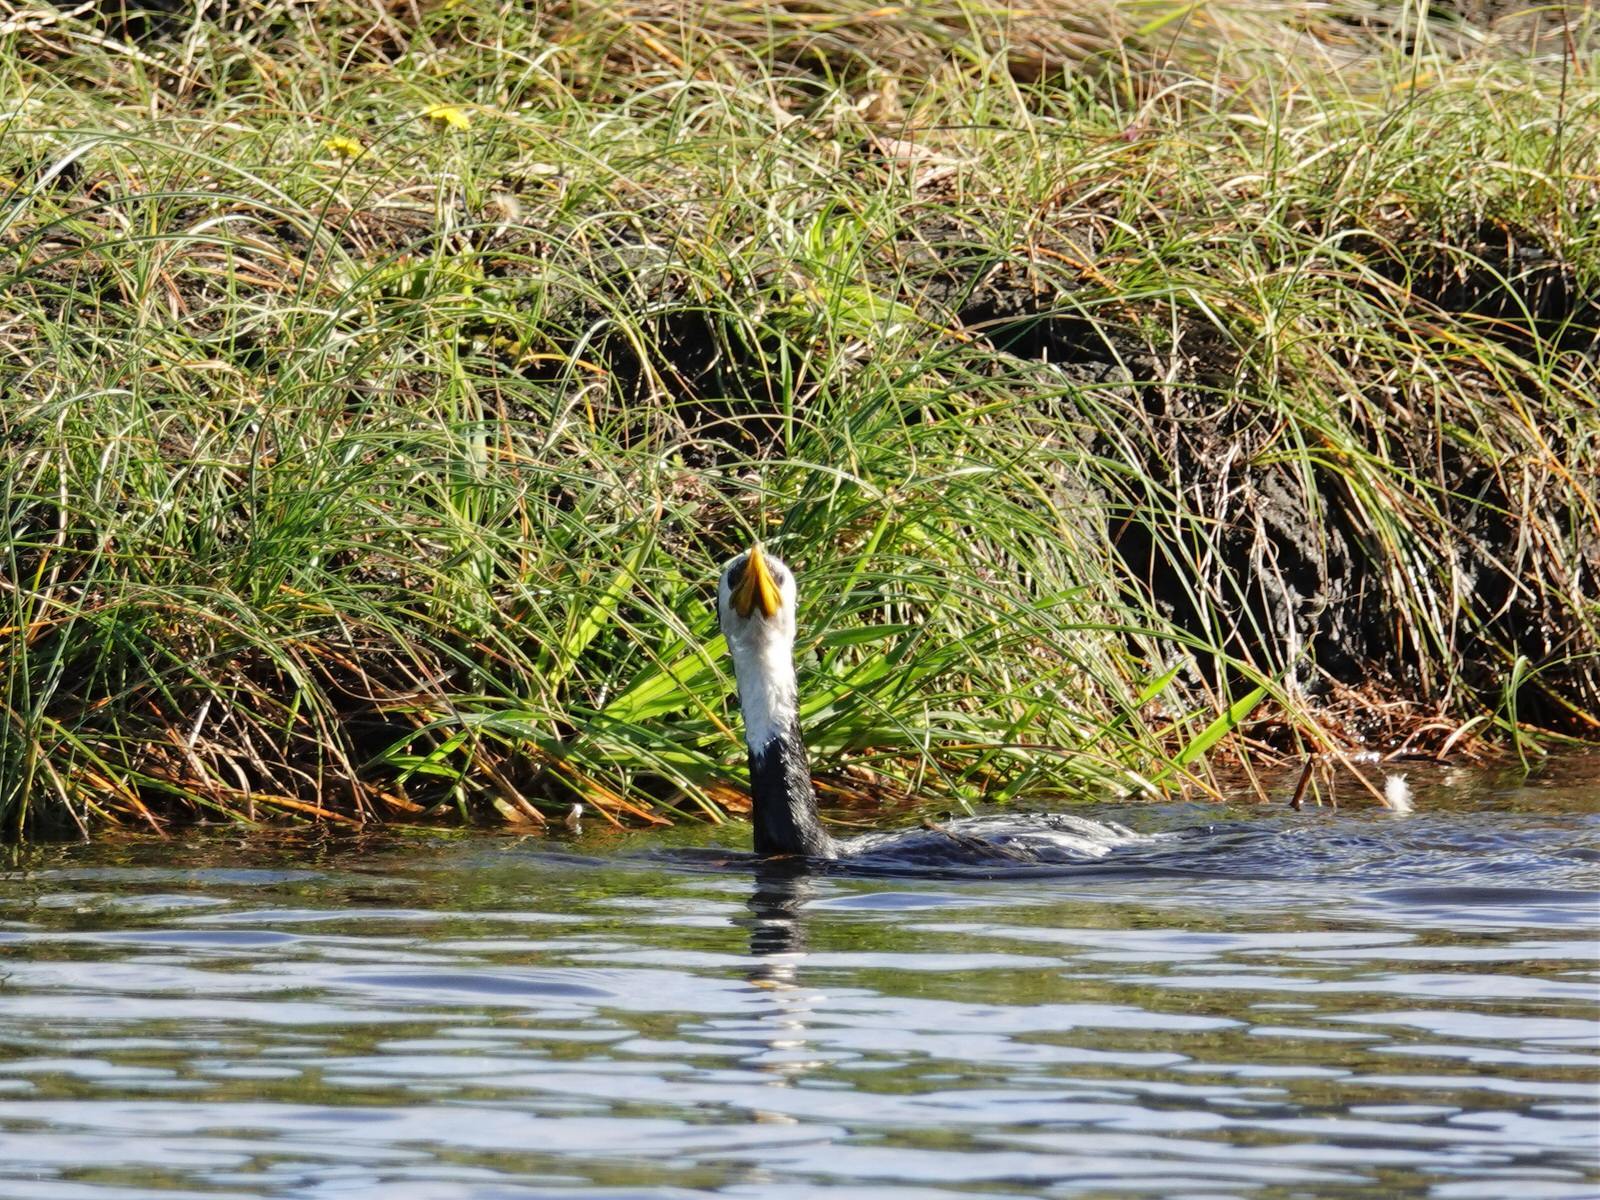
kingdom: Animalia
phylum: Chordata
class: Aves
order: Suliformes
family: Phalacrocoracidae
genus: Microcarbo
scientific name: Microcarbo melanoleucos
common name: Little pied cormorant
